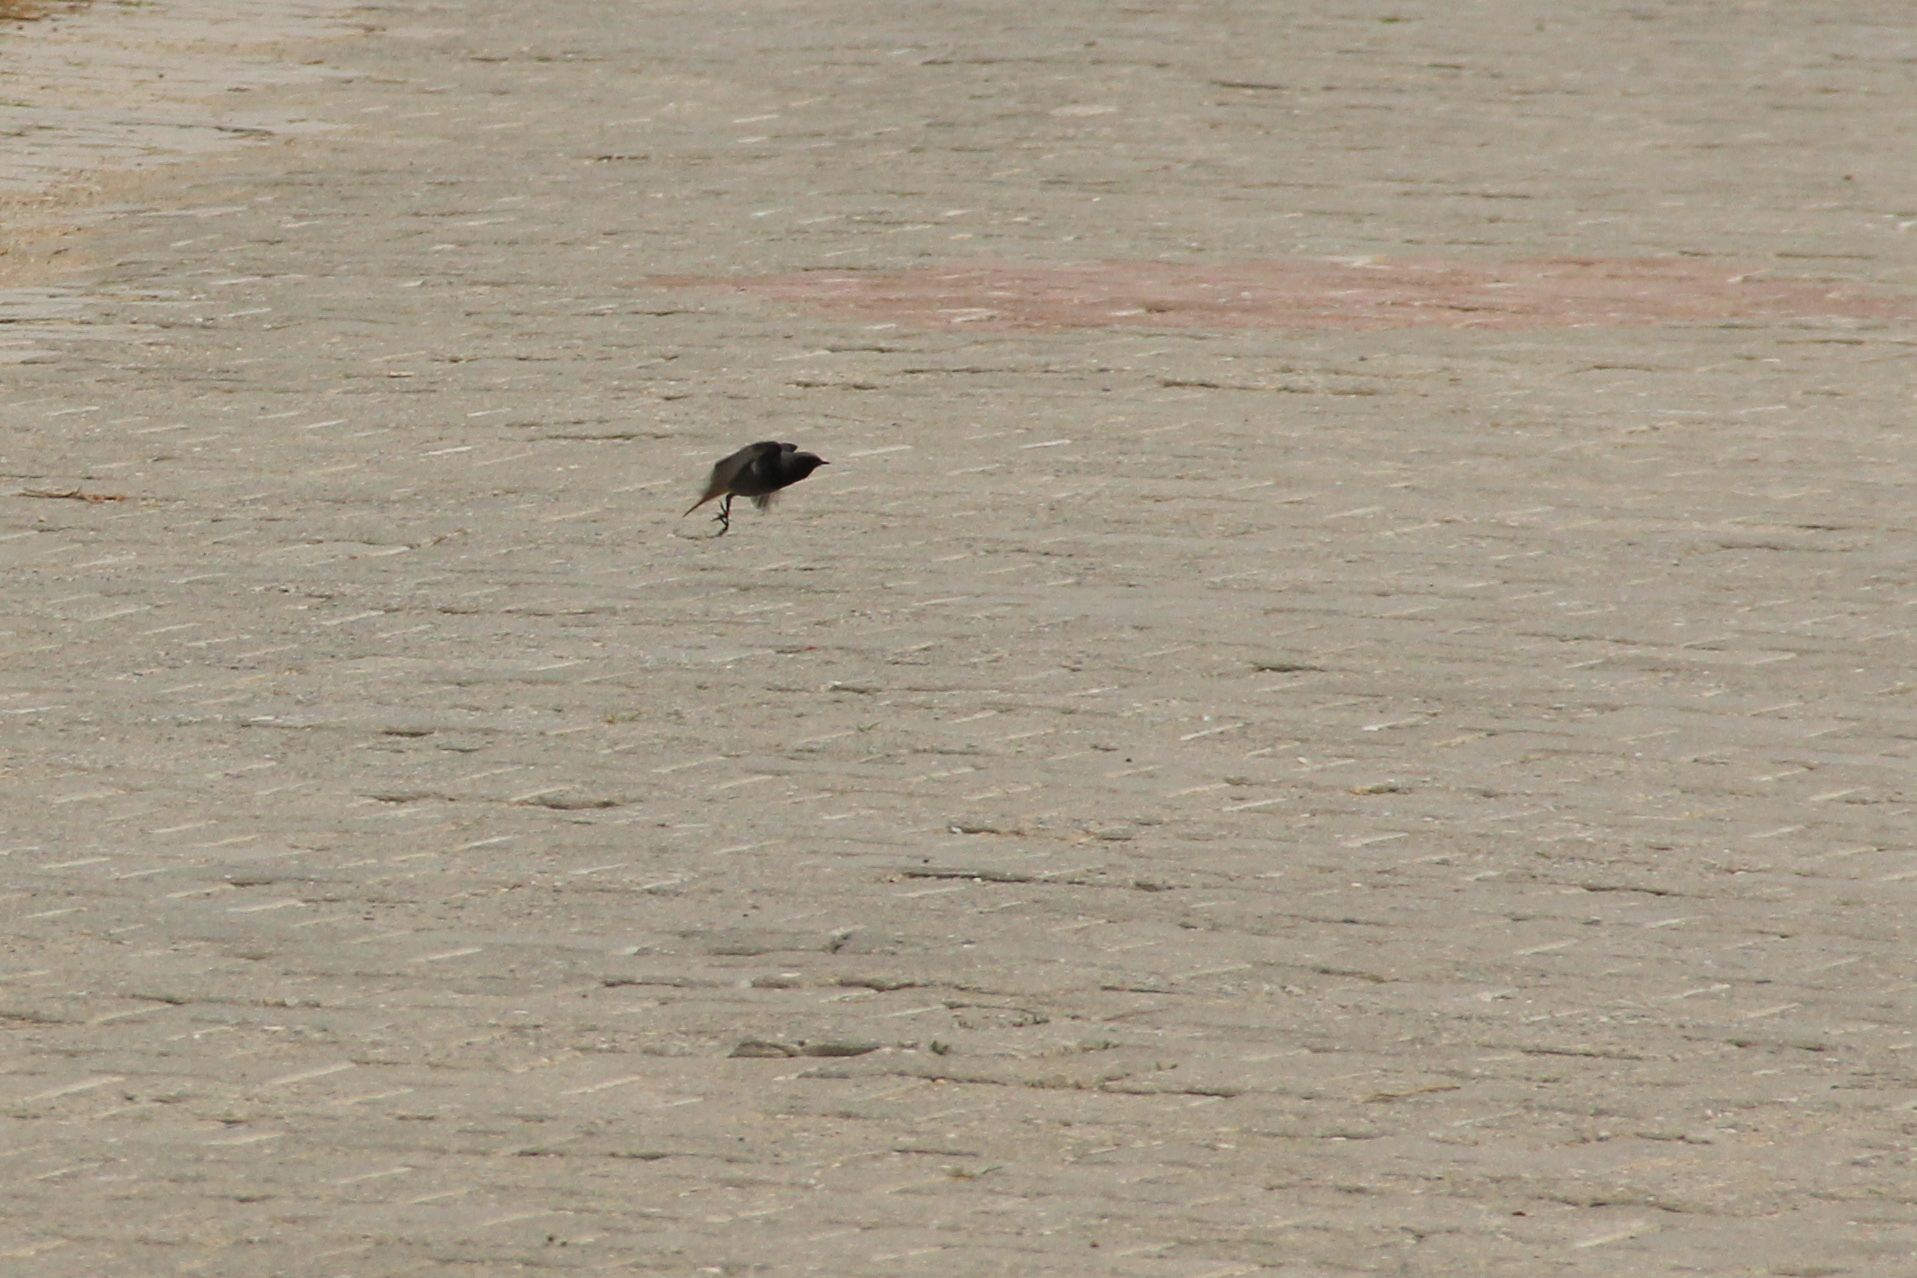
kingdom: Animalia
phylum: Chordata
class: Aves
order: Passeriformes
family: Muscicapidae
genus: Phoenicurus
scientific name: Phoenicurus ochruros
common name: Black redstart
